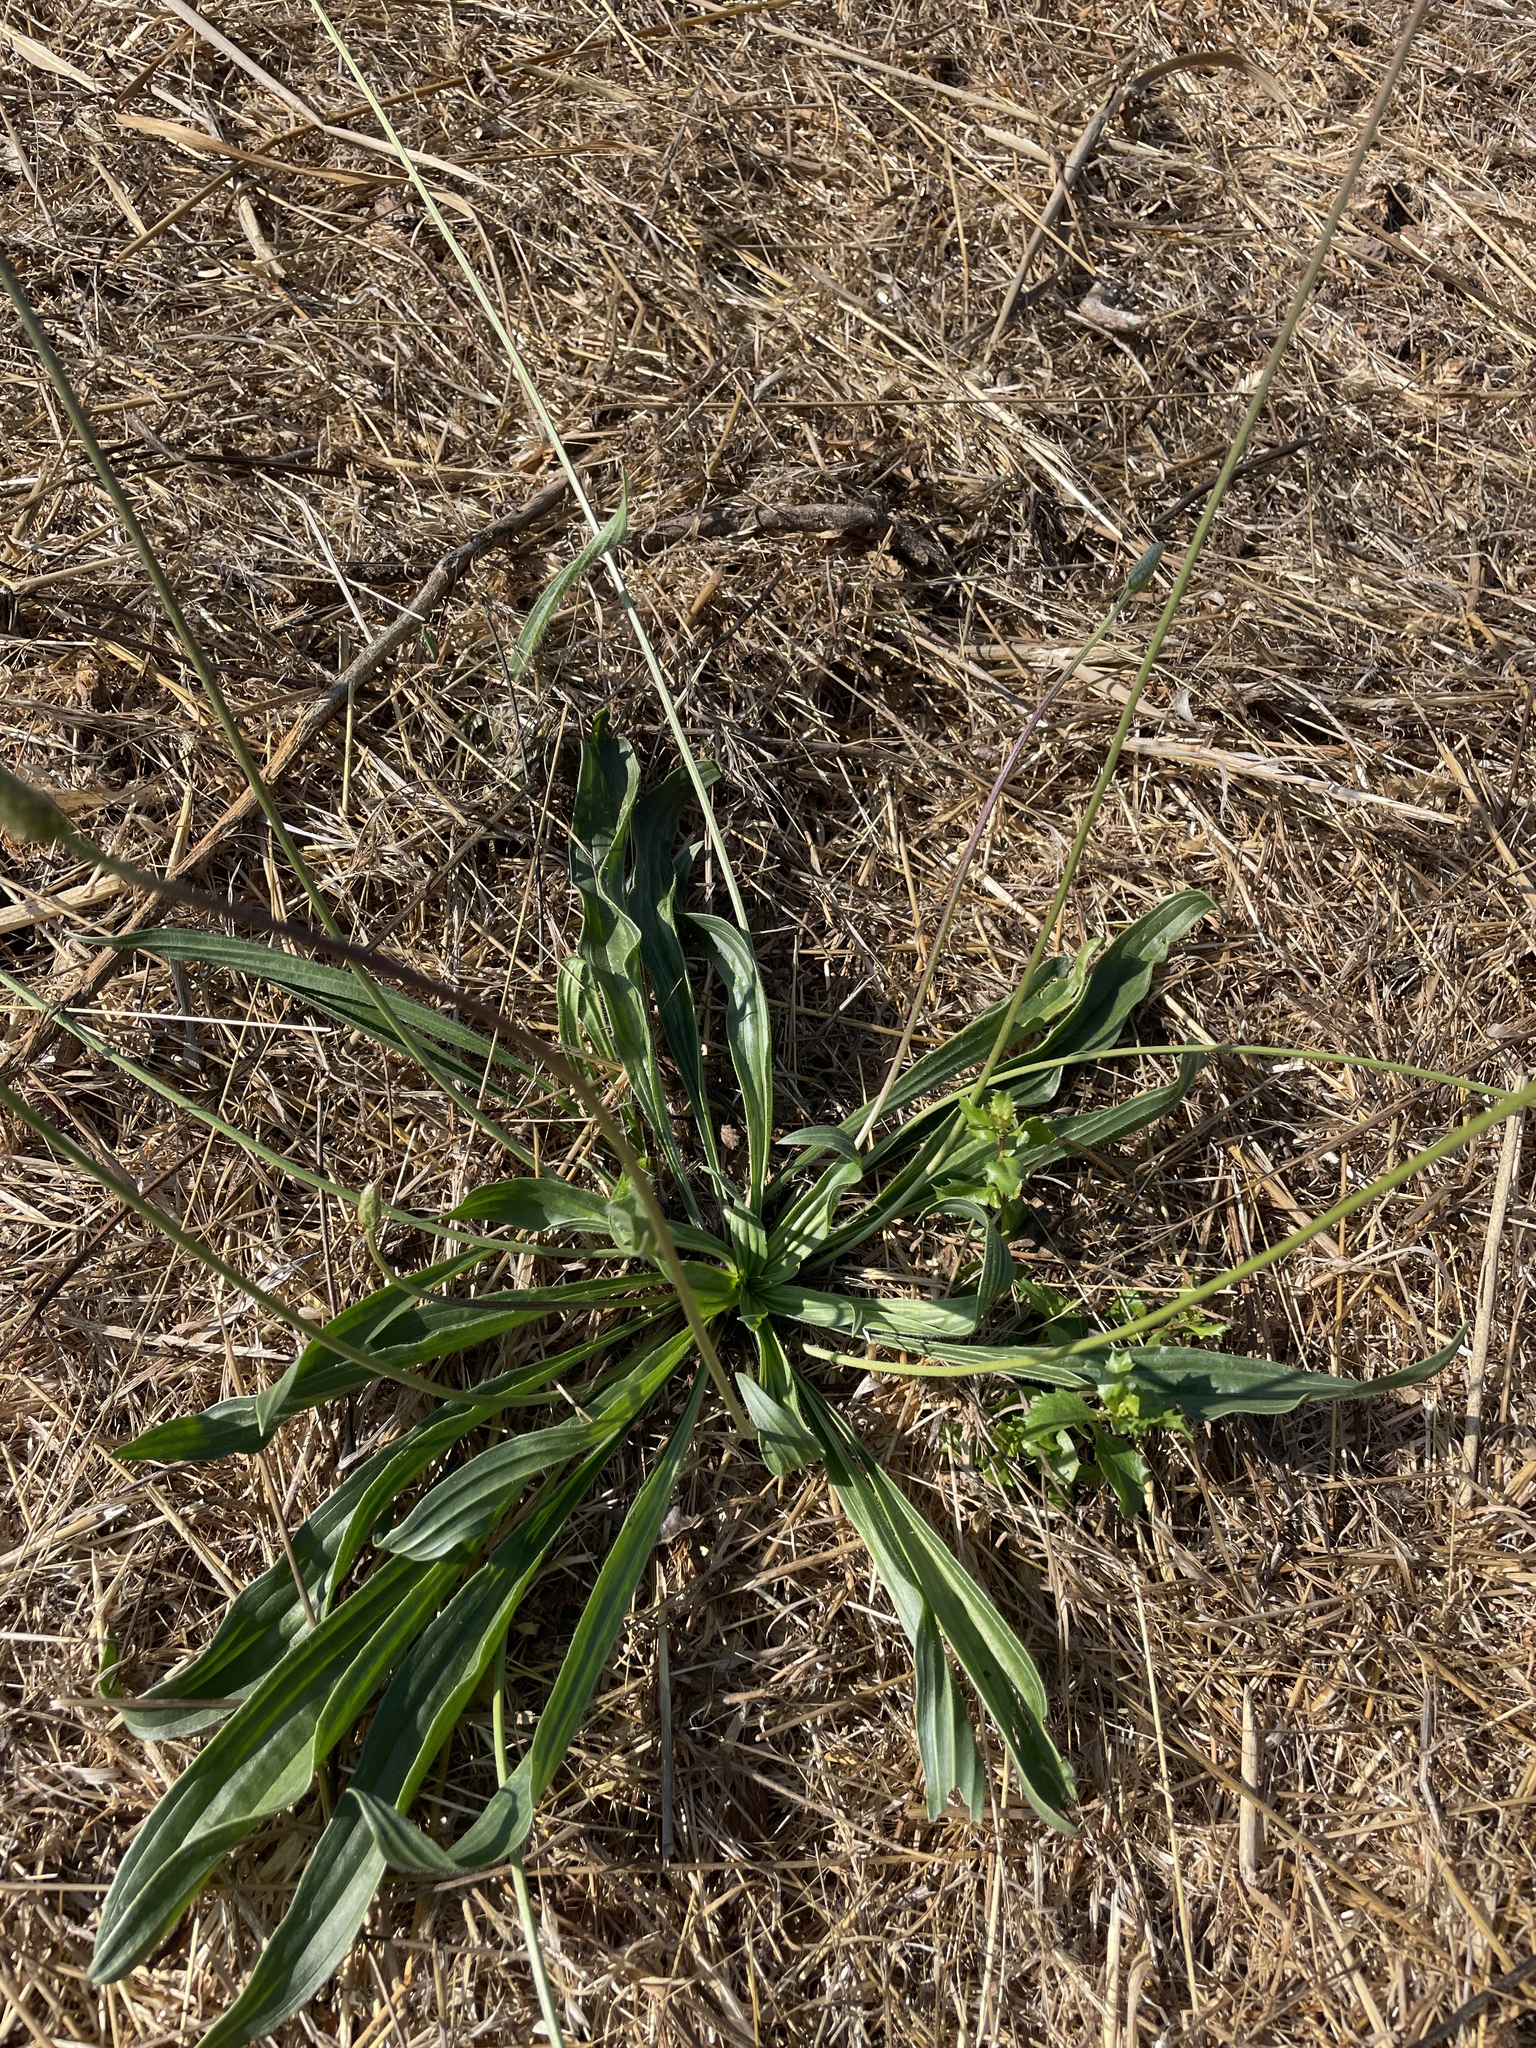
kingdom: Plantae
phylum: Tracheophyta
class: Magnoliopsida
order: Lamiales
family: Plantaginaceae
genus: Plantago
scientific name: Plantago lanceolata
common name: Ribwort plantain
